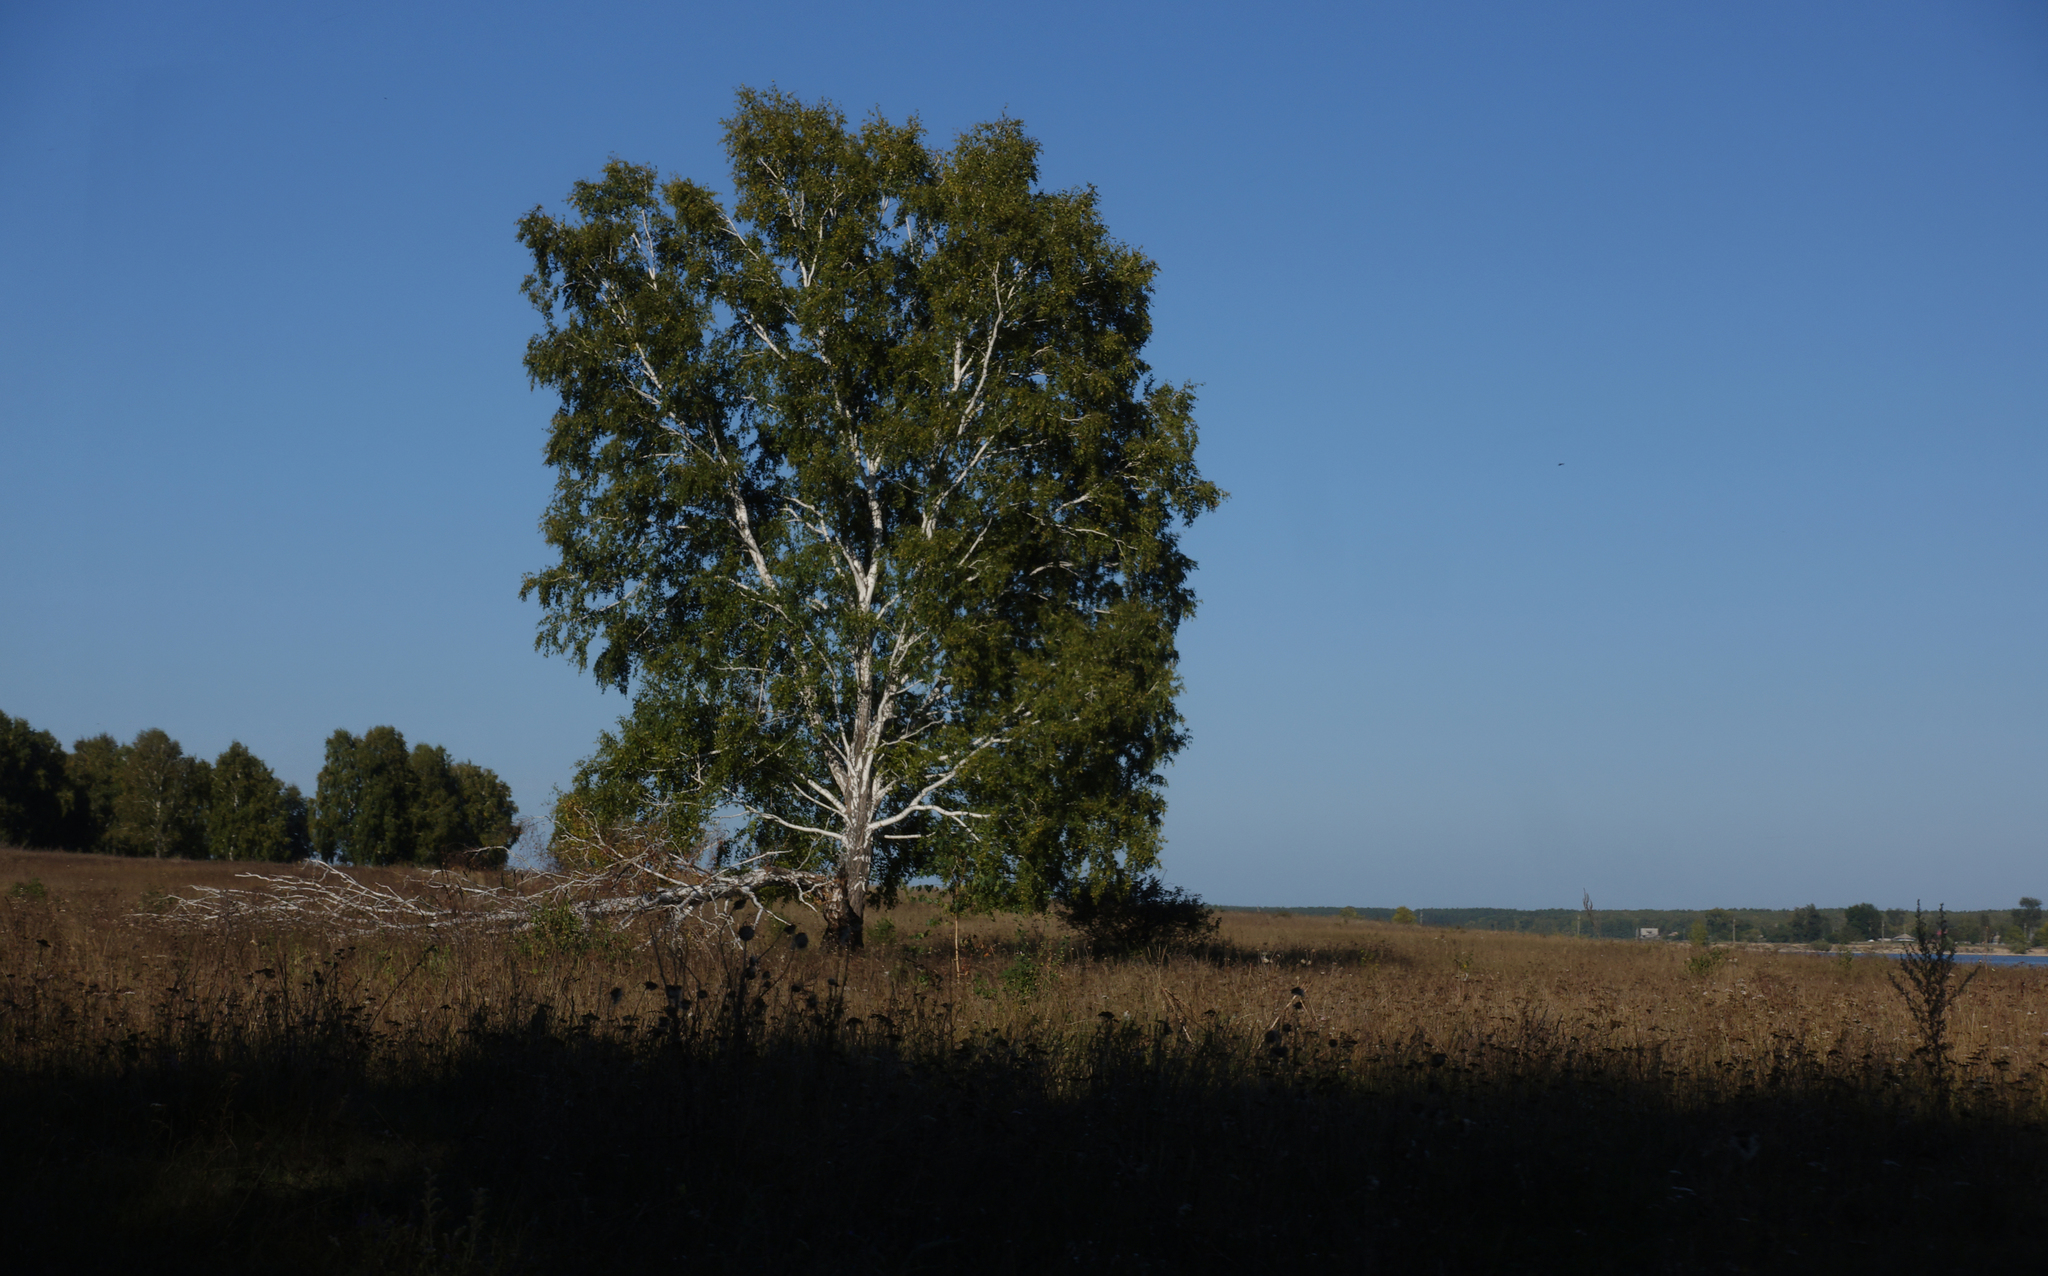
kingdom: Plantae
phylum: Tracheophyta
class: Magnoliopsida
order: Fagales
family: Betulaceae
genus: Betula
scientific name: Betula pendula
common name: Silver birch
